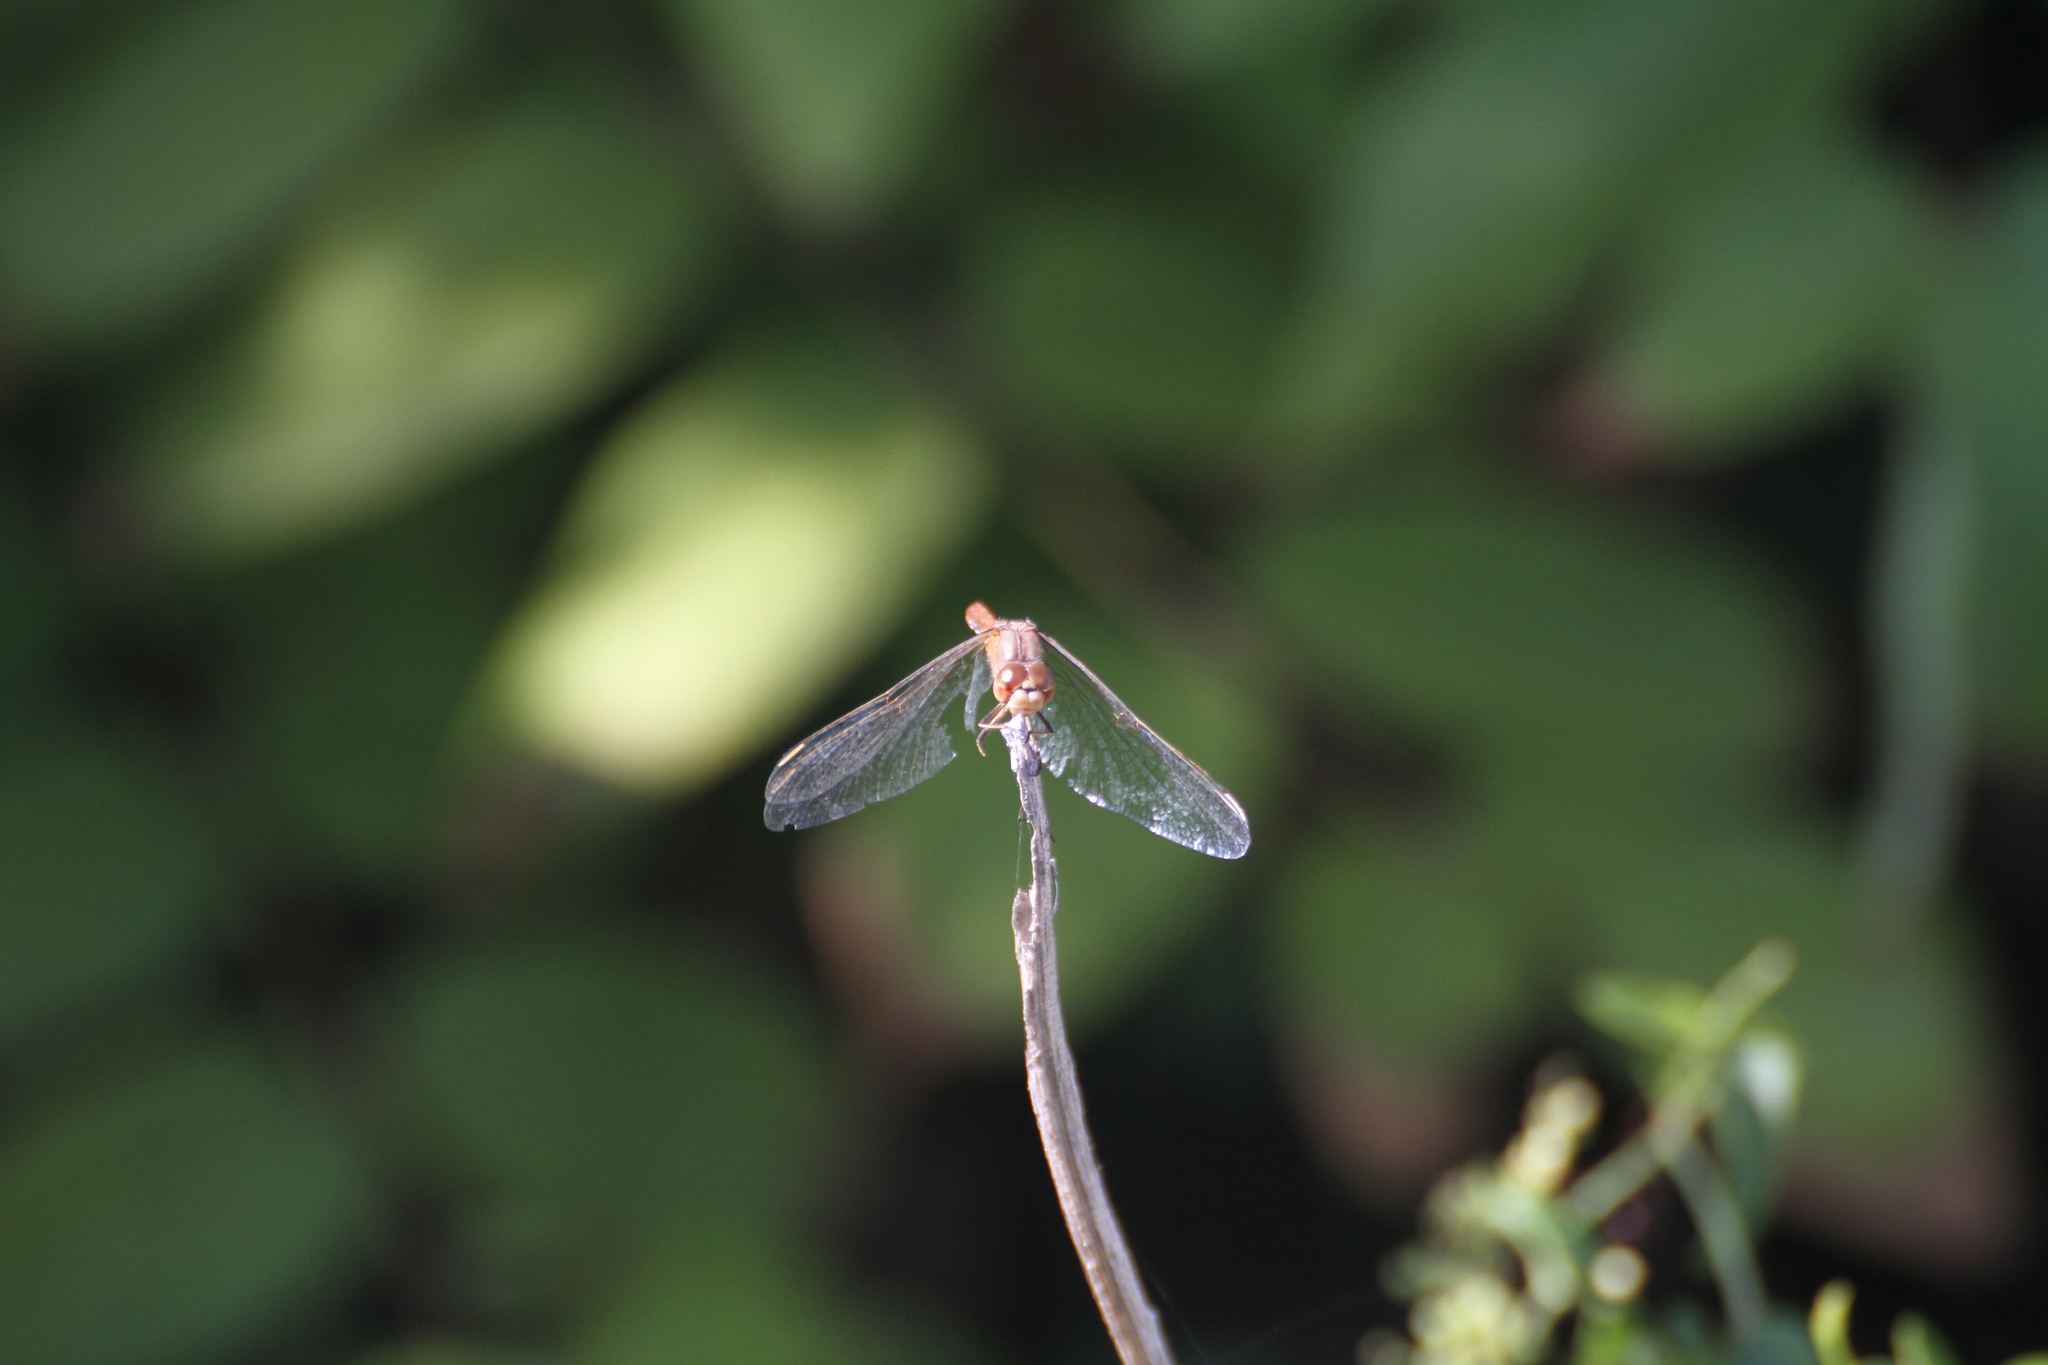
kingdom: Animalia
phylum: Arthropoda
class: Insecta
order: Odonata
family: Libellulidae
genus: Sympetrum
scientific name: Sympetrum meridionale
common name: Southern darter
